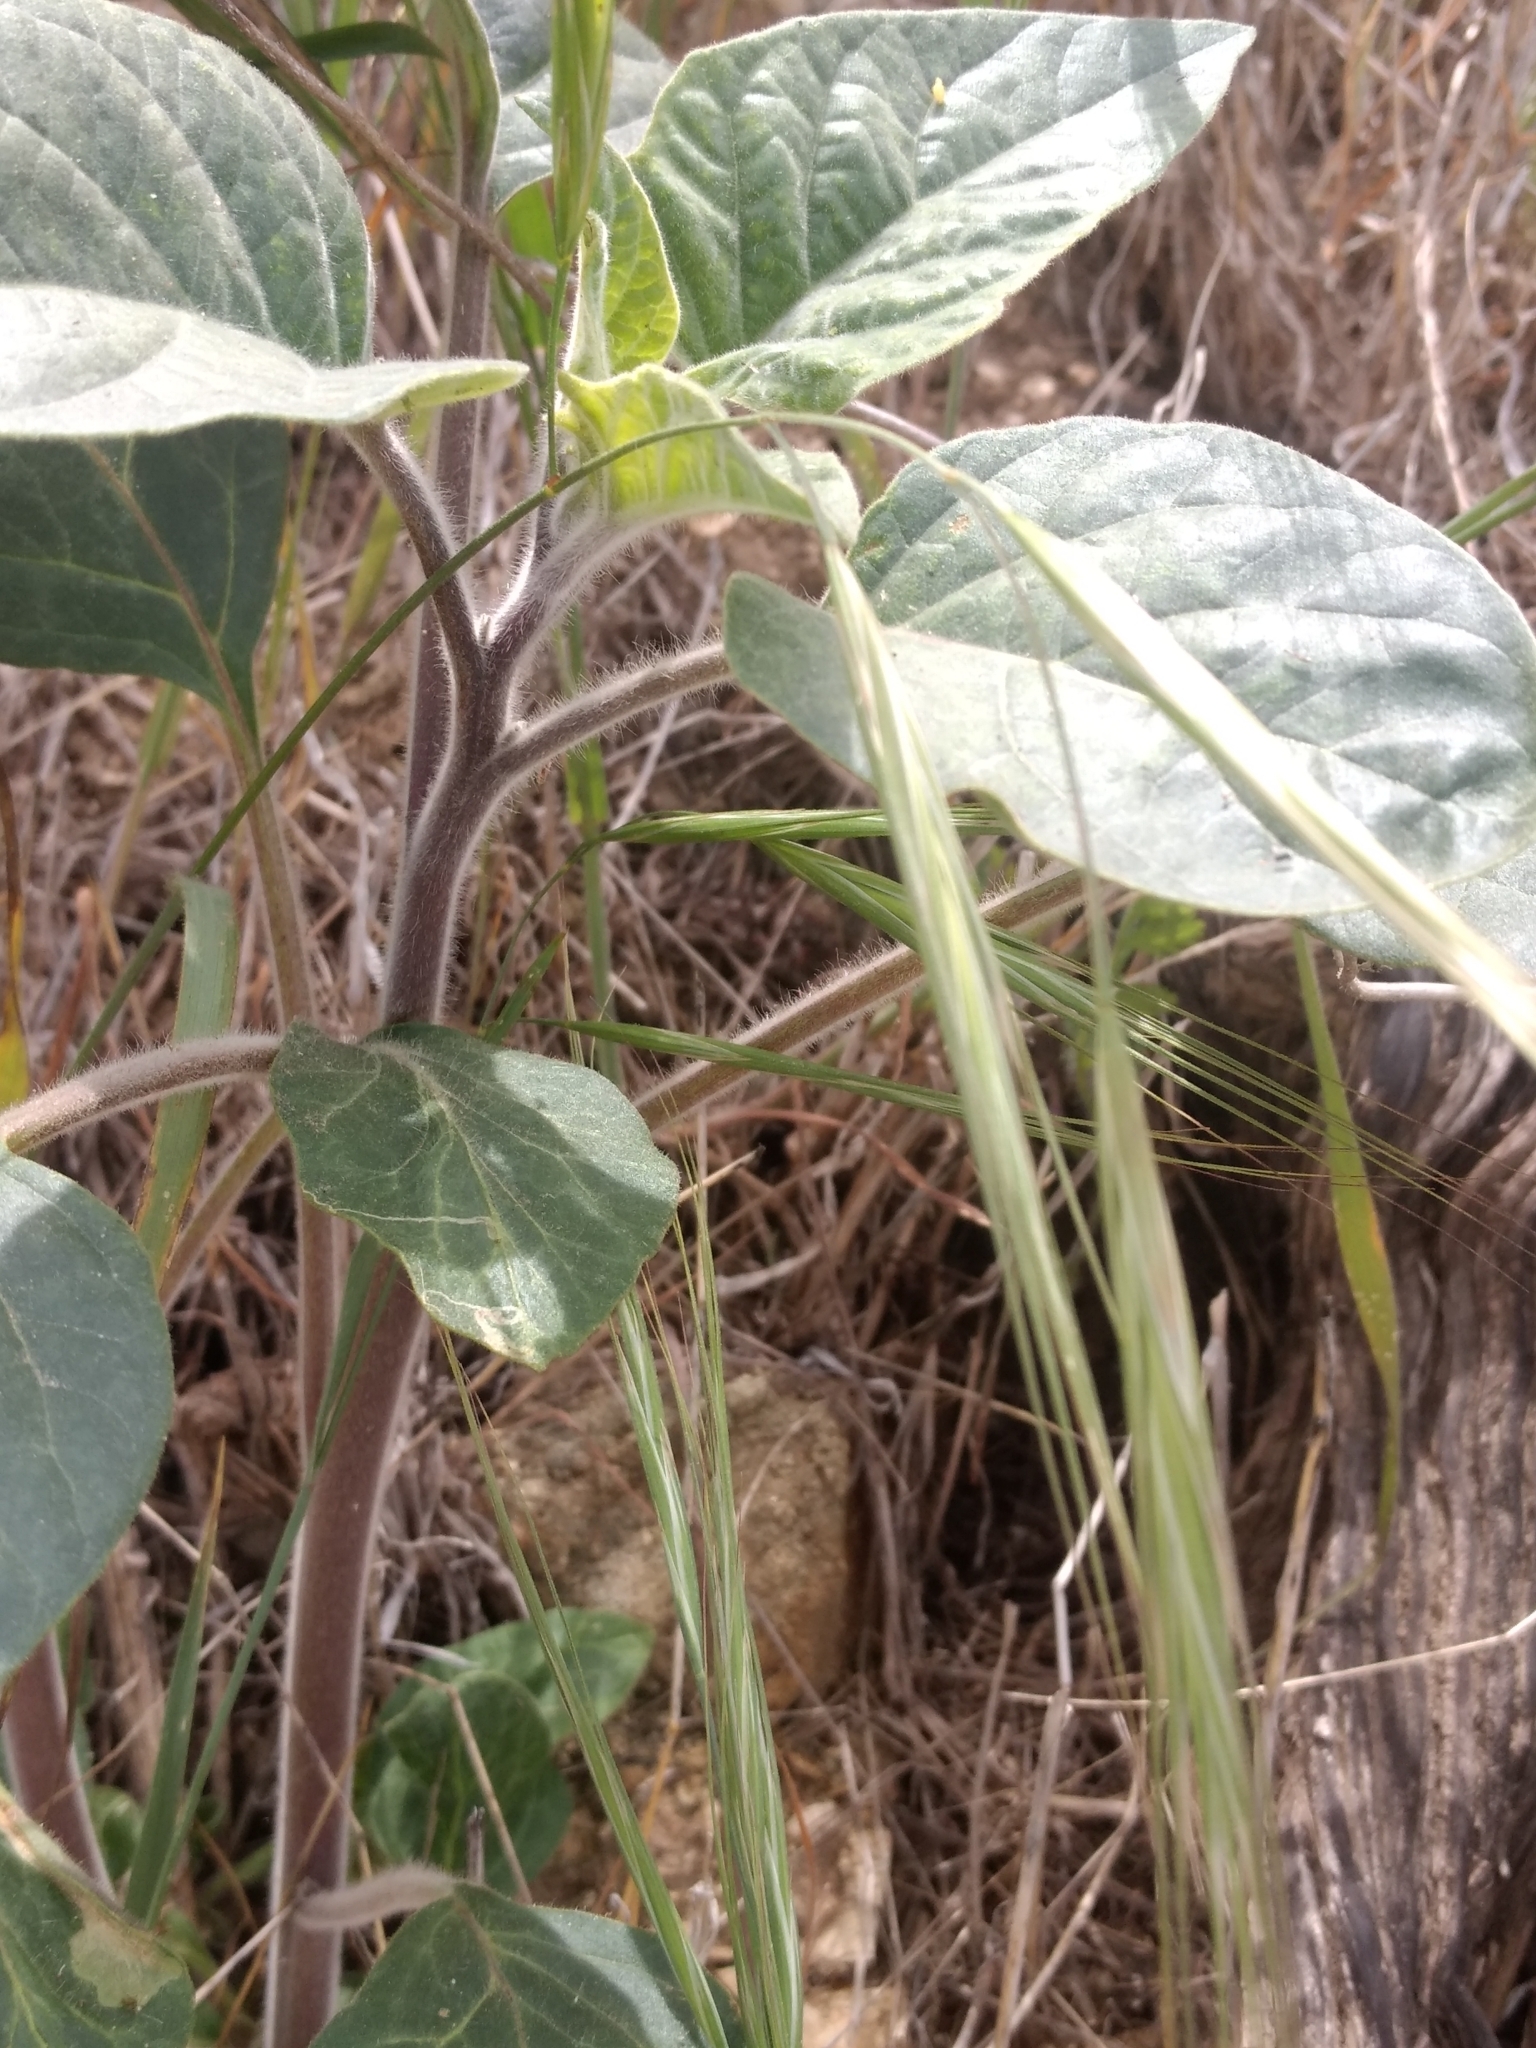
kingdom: Plantae
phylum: Tracheophyta
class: Magnoliopsida
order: Solanales
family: Solanaceae
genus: Datura
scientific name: Datura wrightii
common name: Sacred thorn-apple
